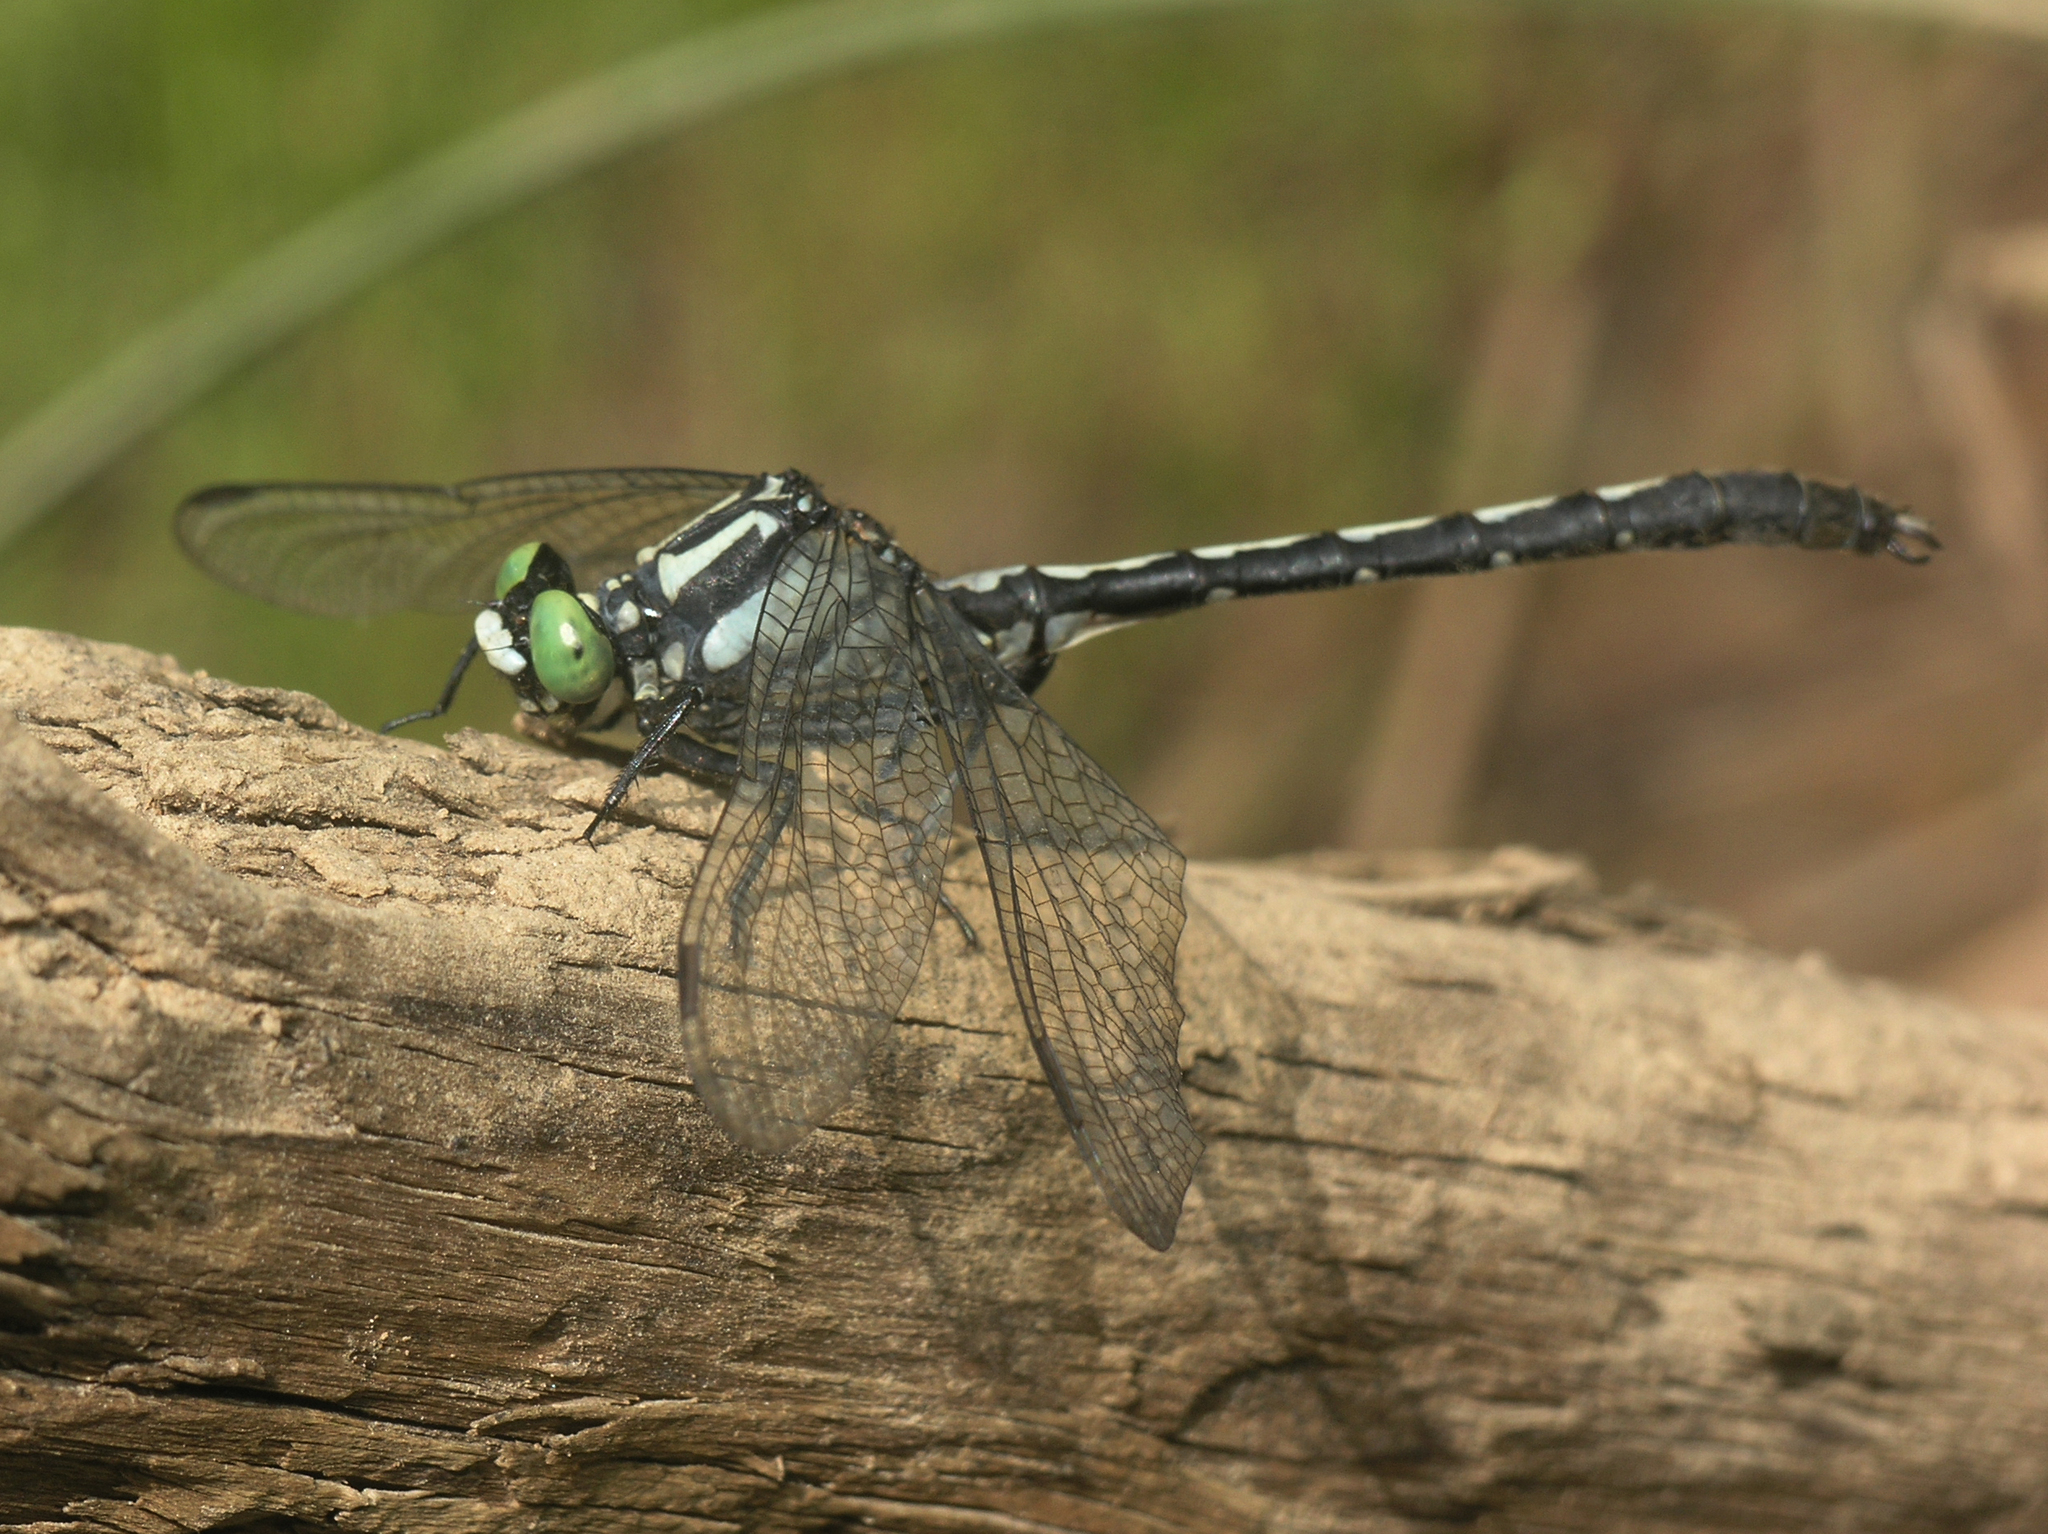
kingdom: Animalia
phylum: Arthropoda
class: Insecta
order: Odonata
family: Gomphidae
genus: Trigomphus
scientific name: Trigomphus nigripes
